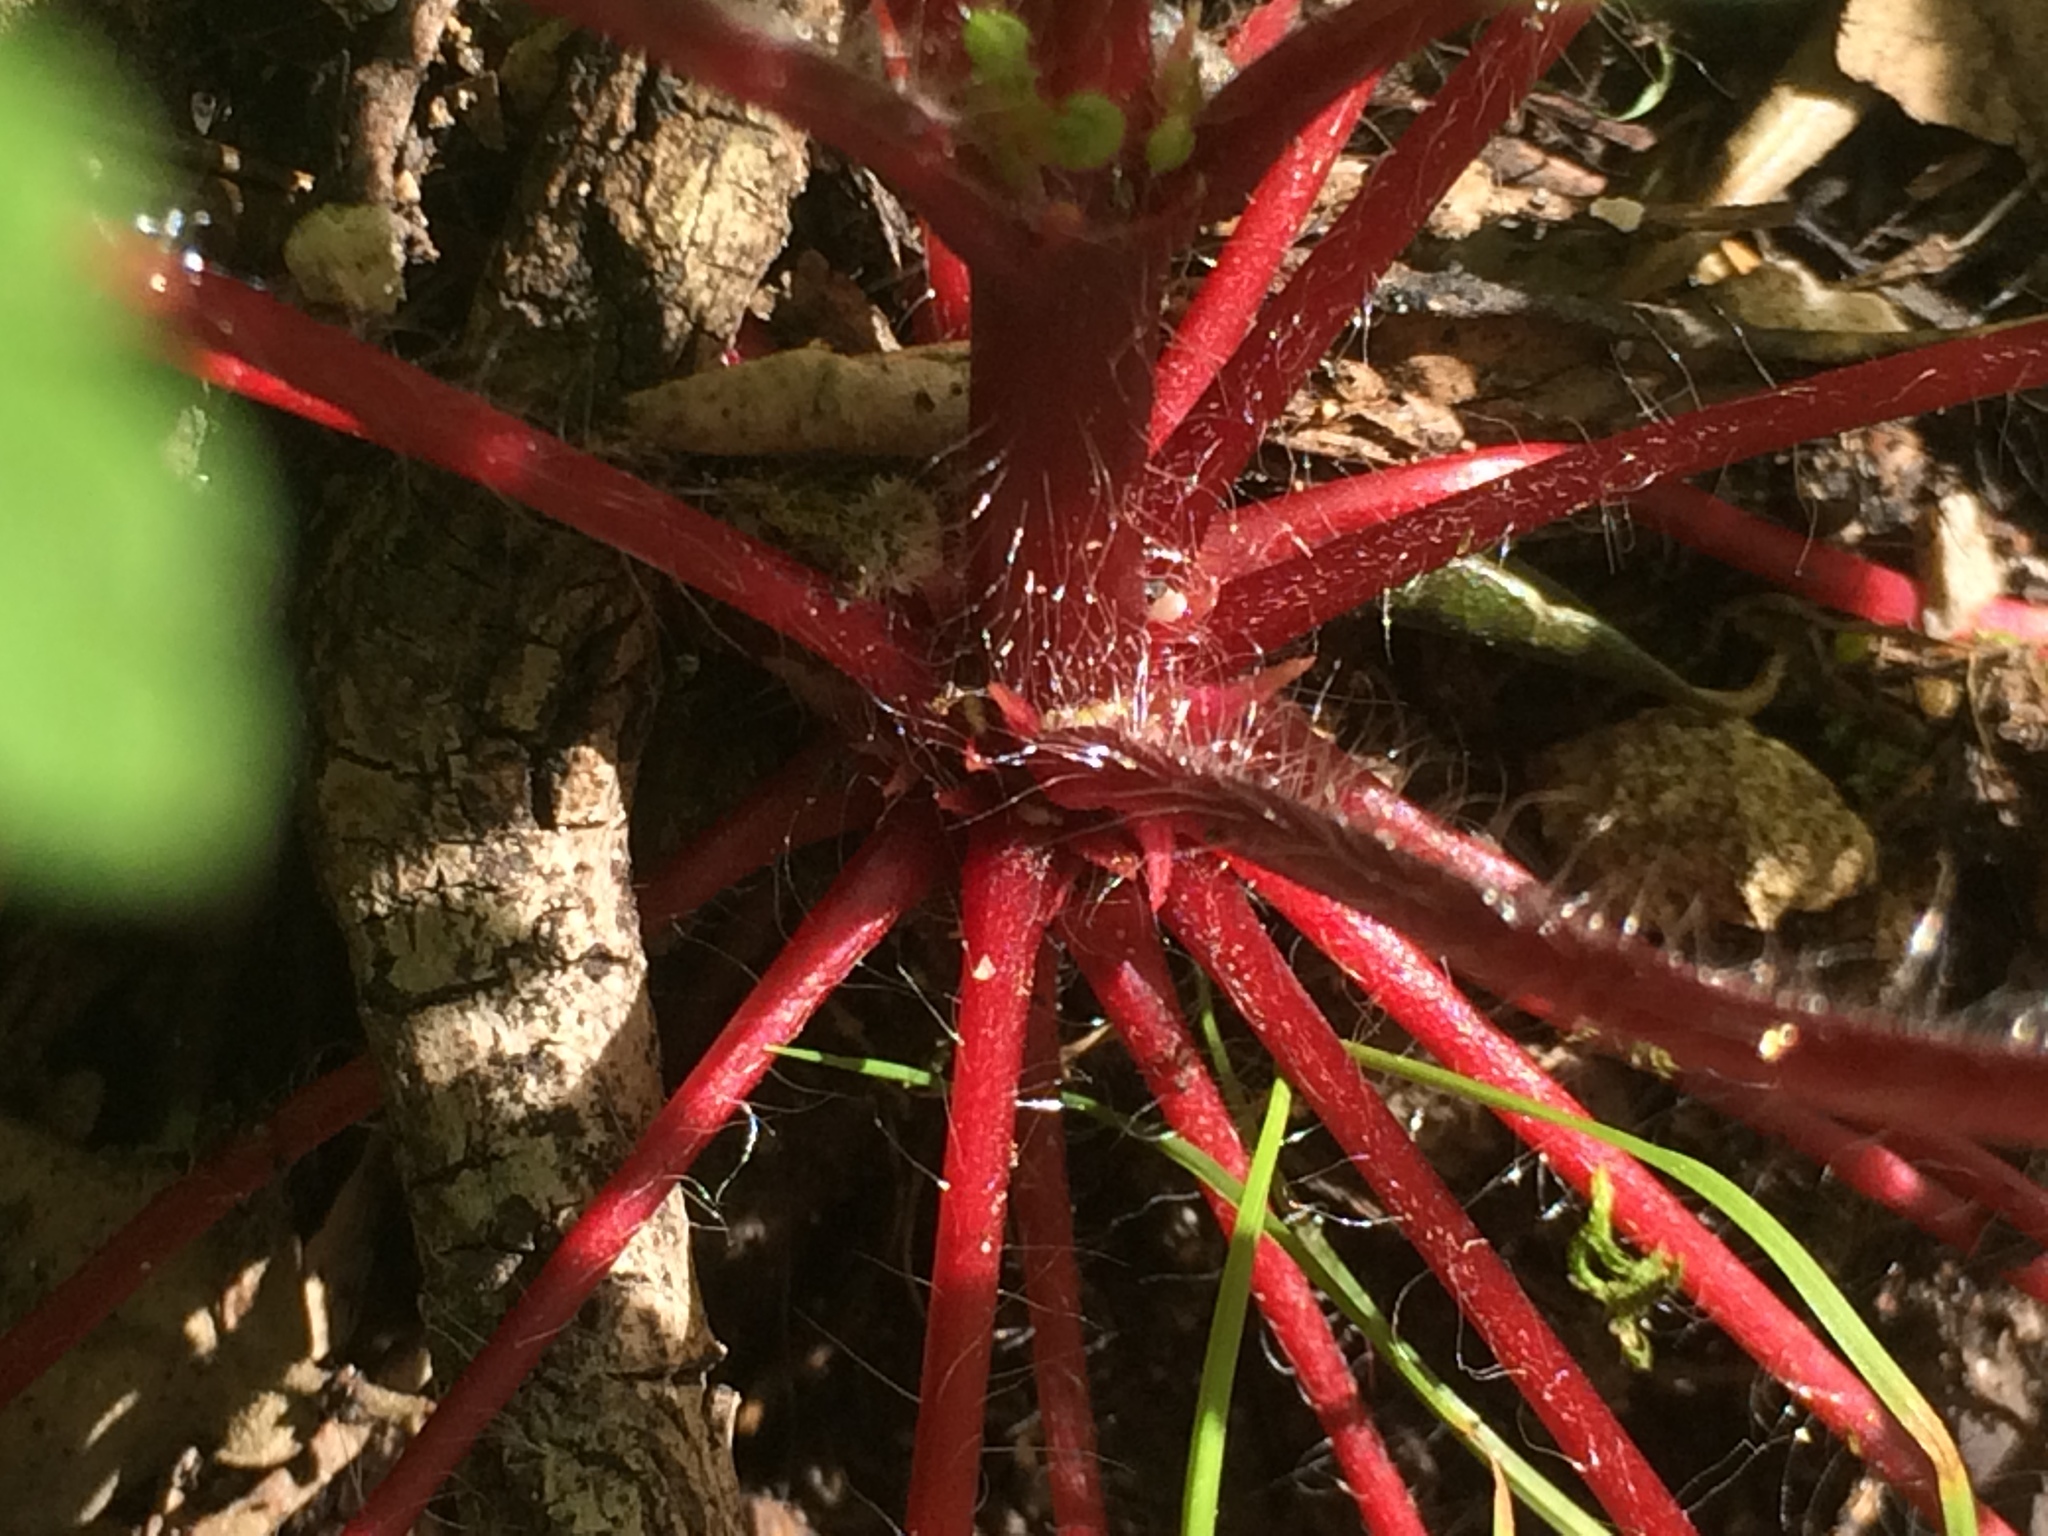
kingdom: Plantae
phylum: Tracheophyta
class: Magnoliopsida
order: Geraniales
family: Geraniaceae
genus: Geranium
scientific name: Geranium purpureum
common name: Little-robin
